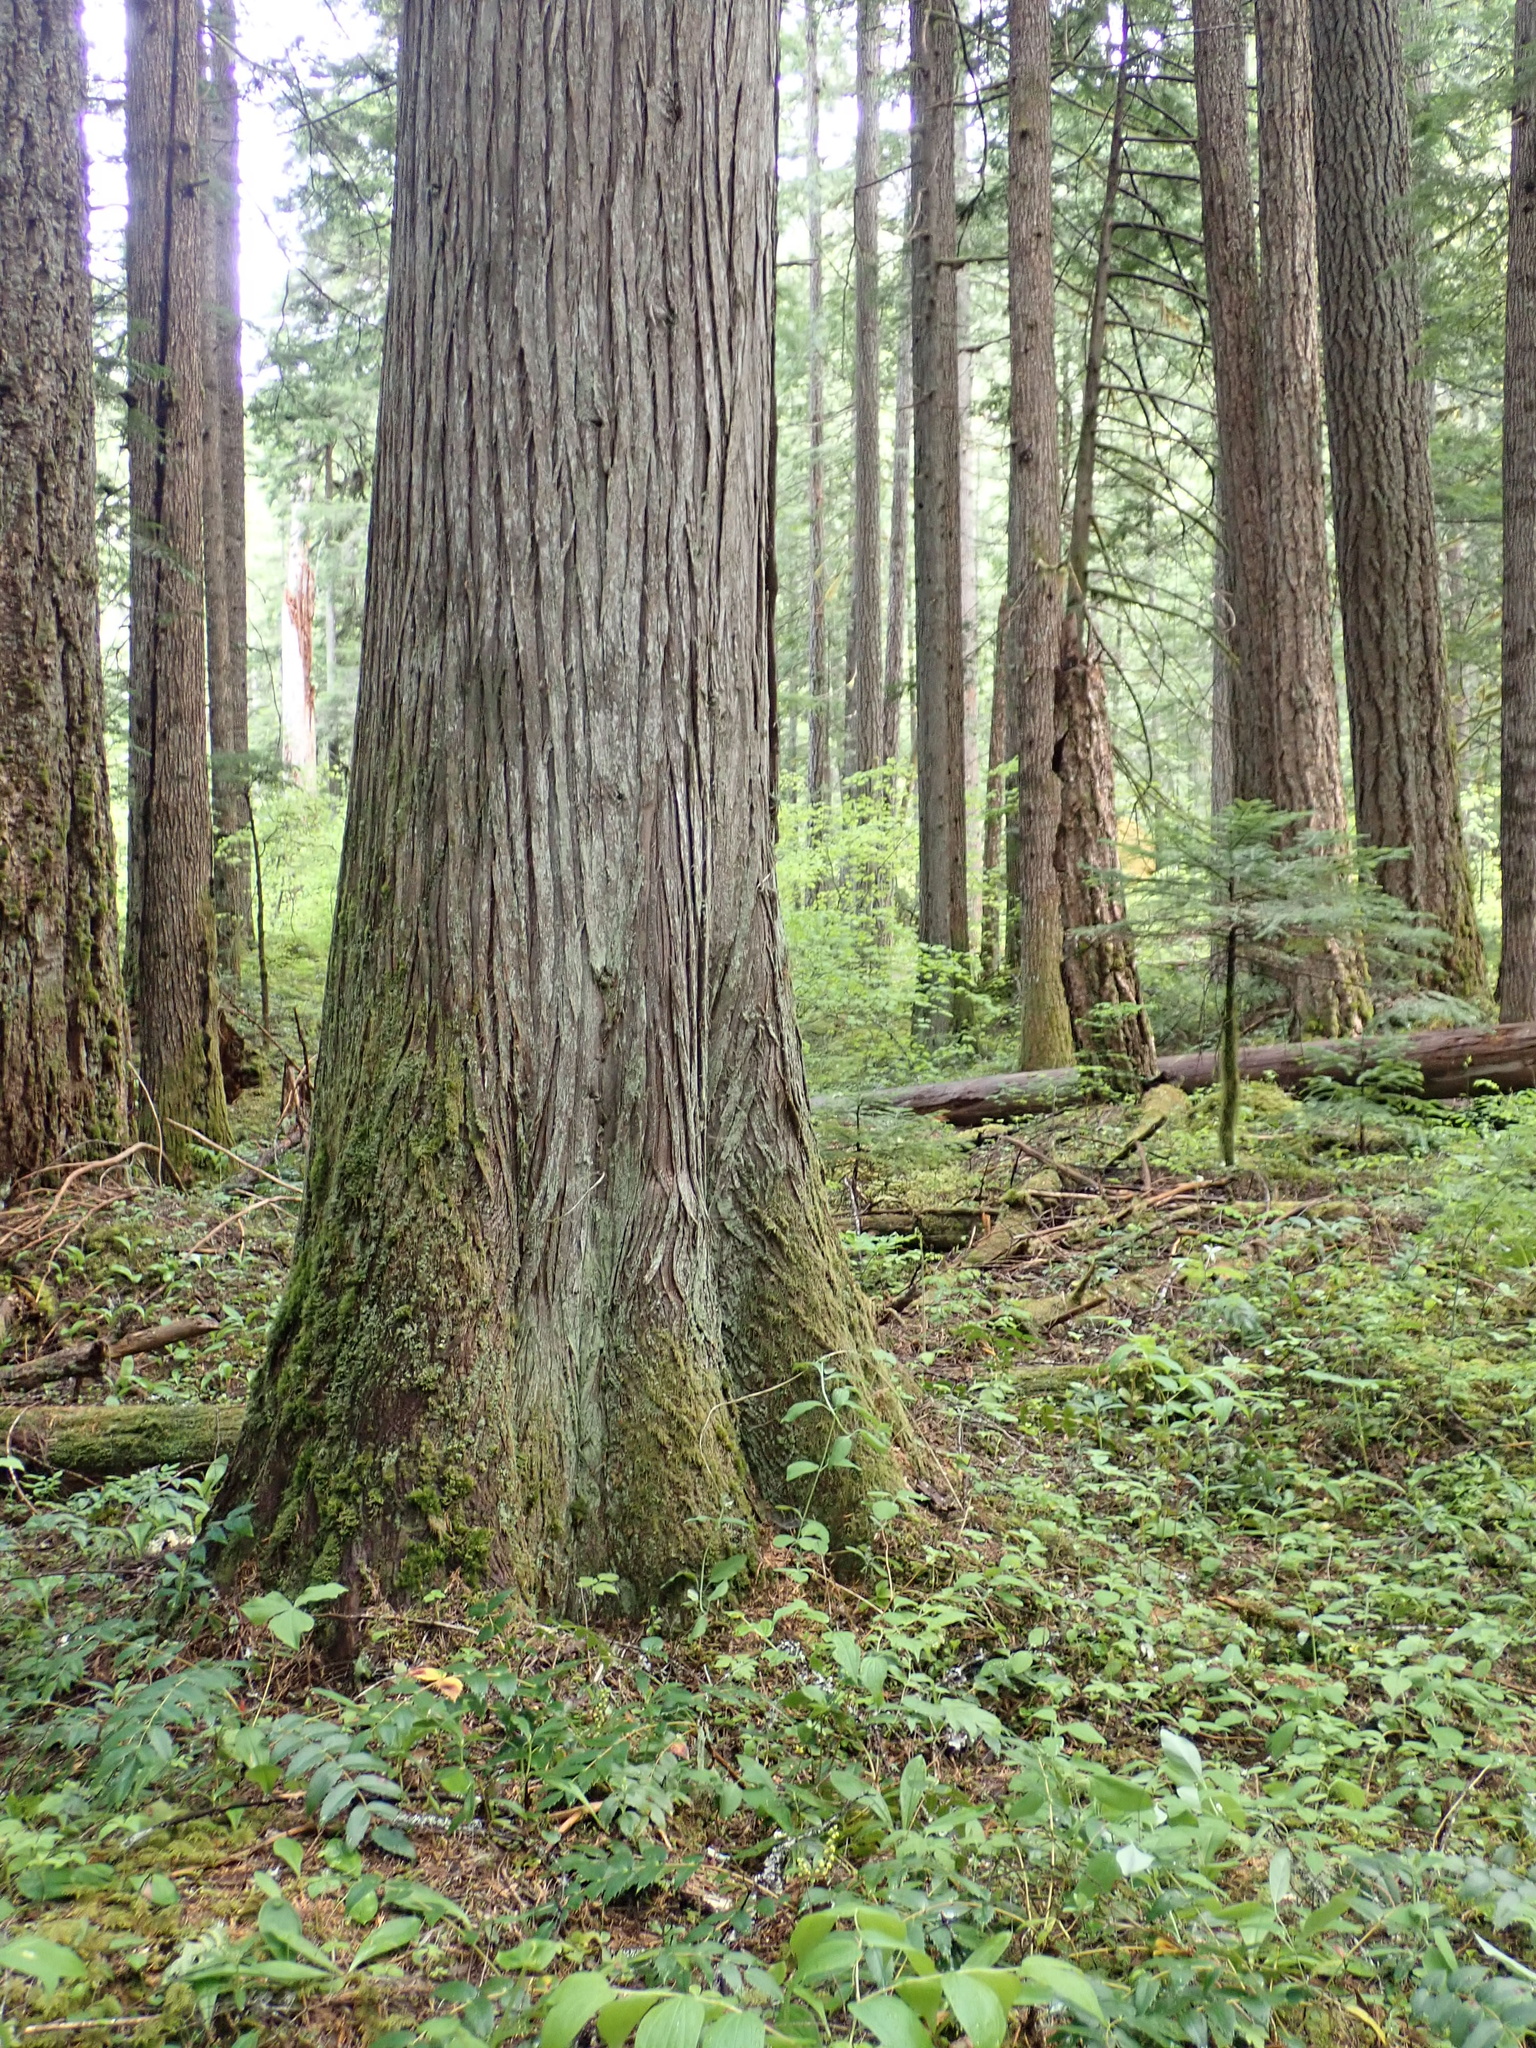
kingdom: Plantae
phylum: Tracheophyta
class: Pinopsida
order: Pinales
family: Cupressaceae
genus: Thuja
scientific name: Thuja plicata
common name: Western red-cedar
